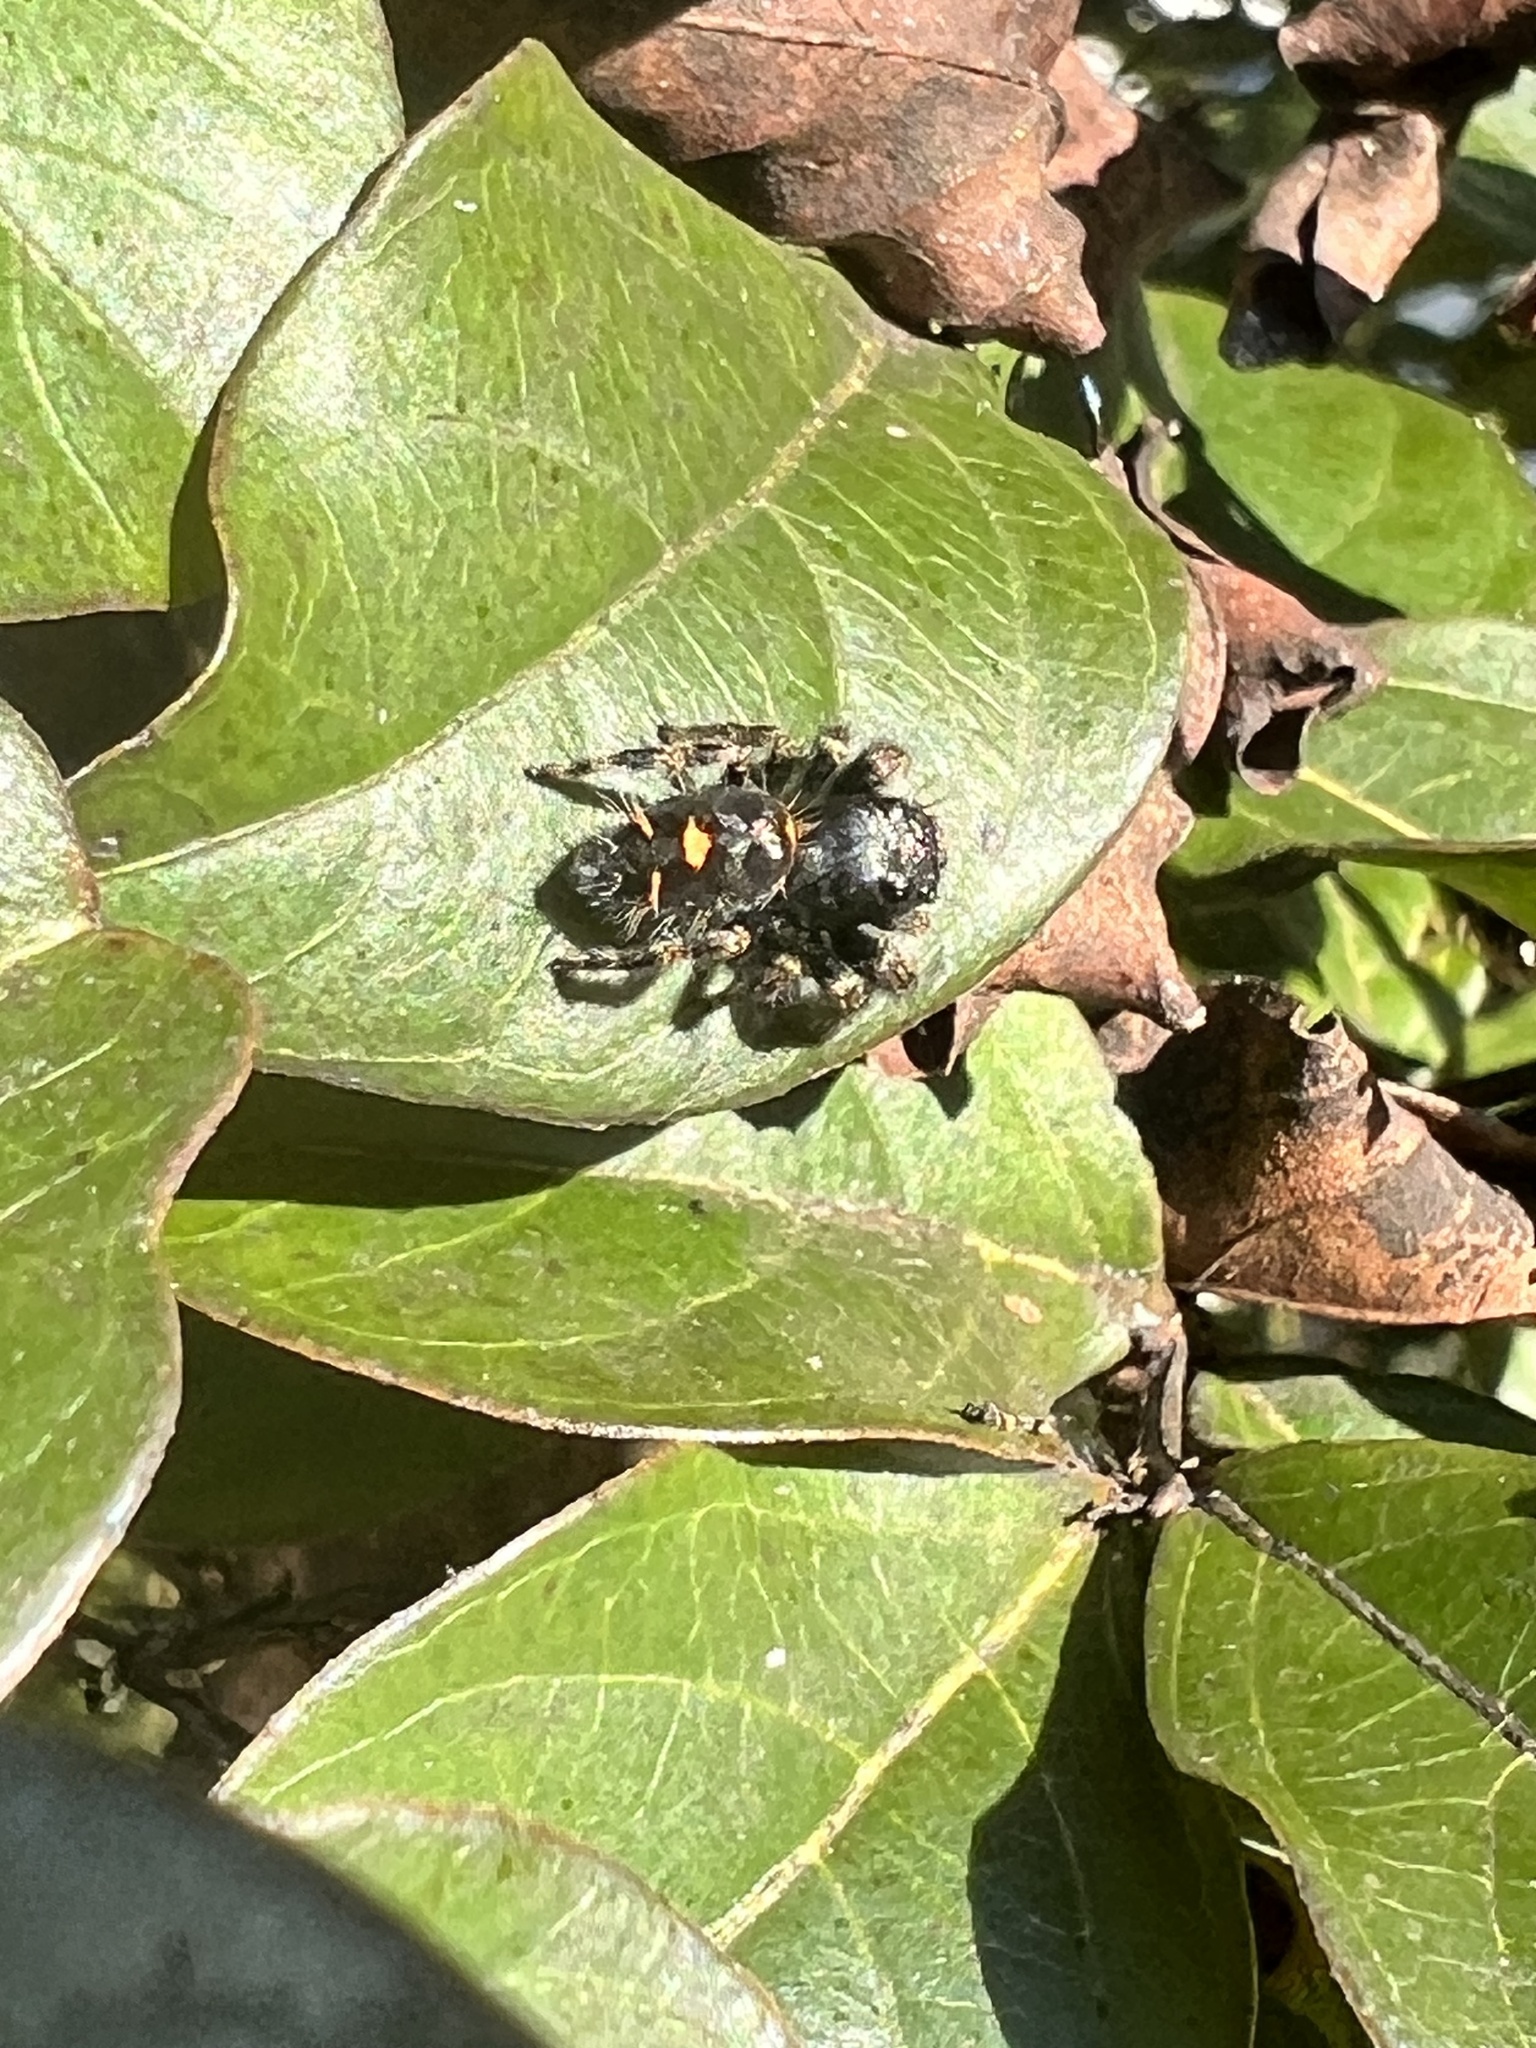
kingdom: Animalia
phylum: Arthropoda
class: Arachnida
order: Araneae
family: Salticidae
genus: Phidippus
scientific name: Phidippus audax
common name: Bold jumper
